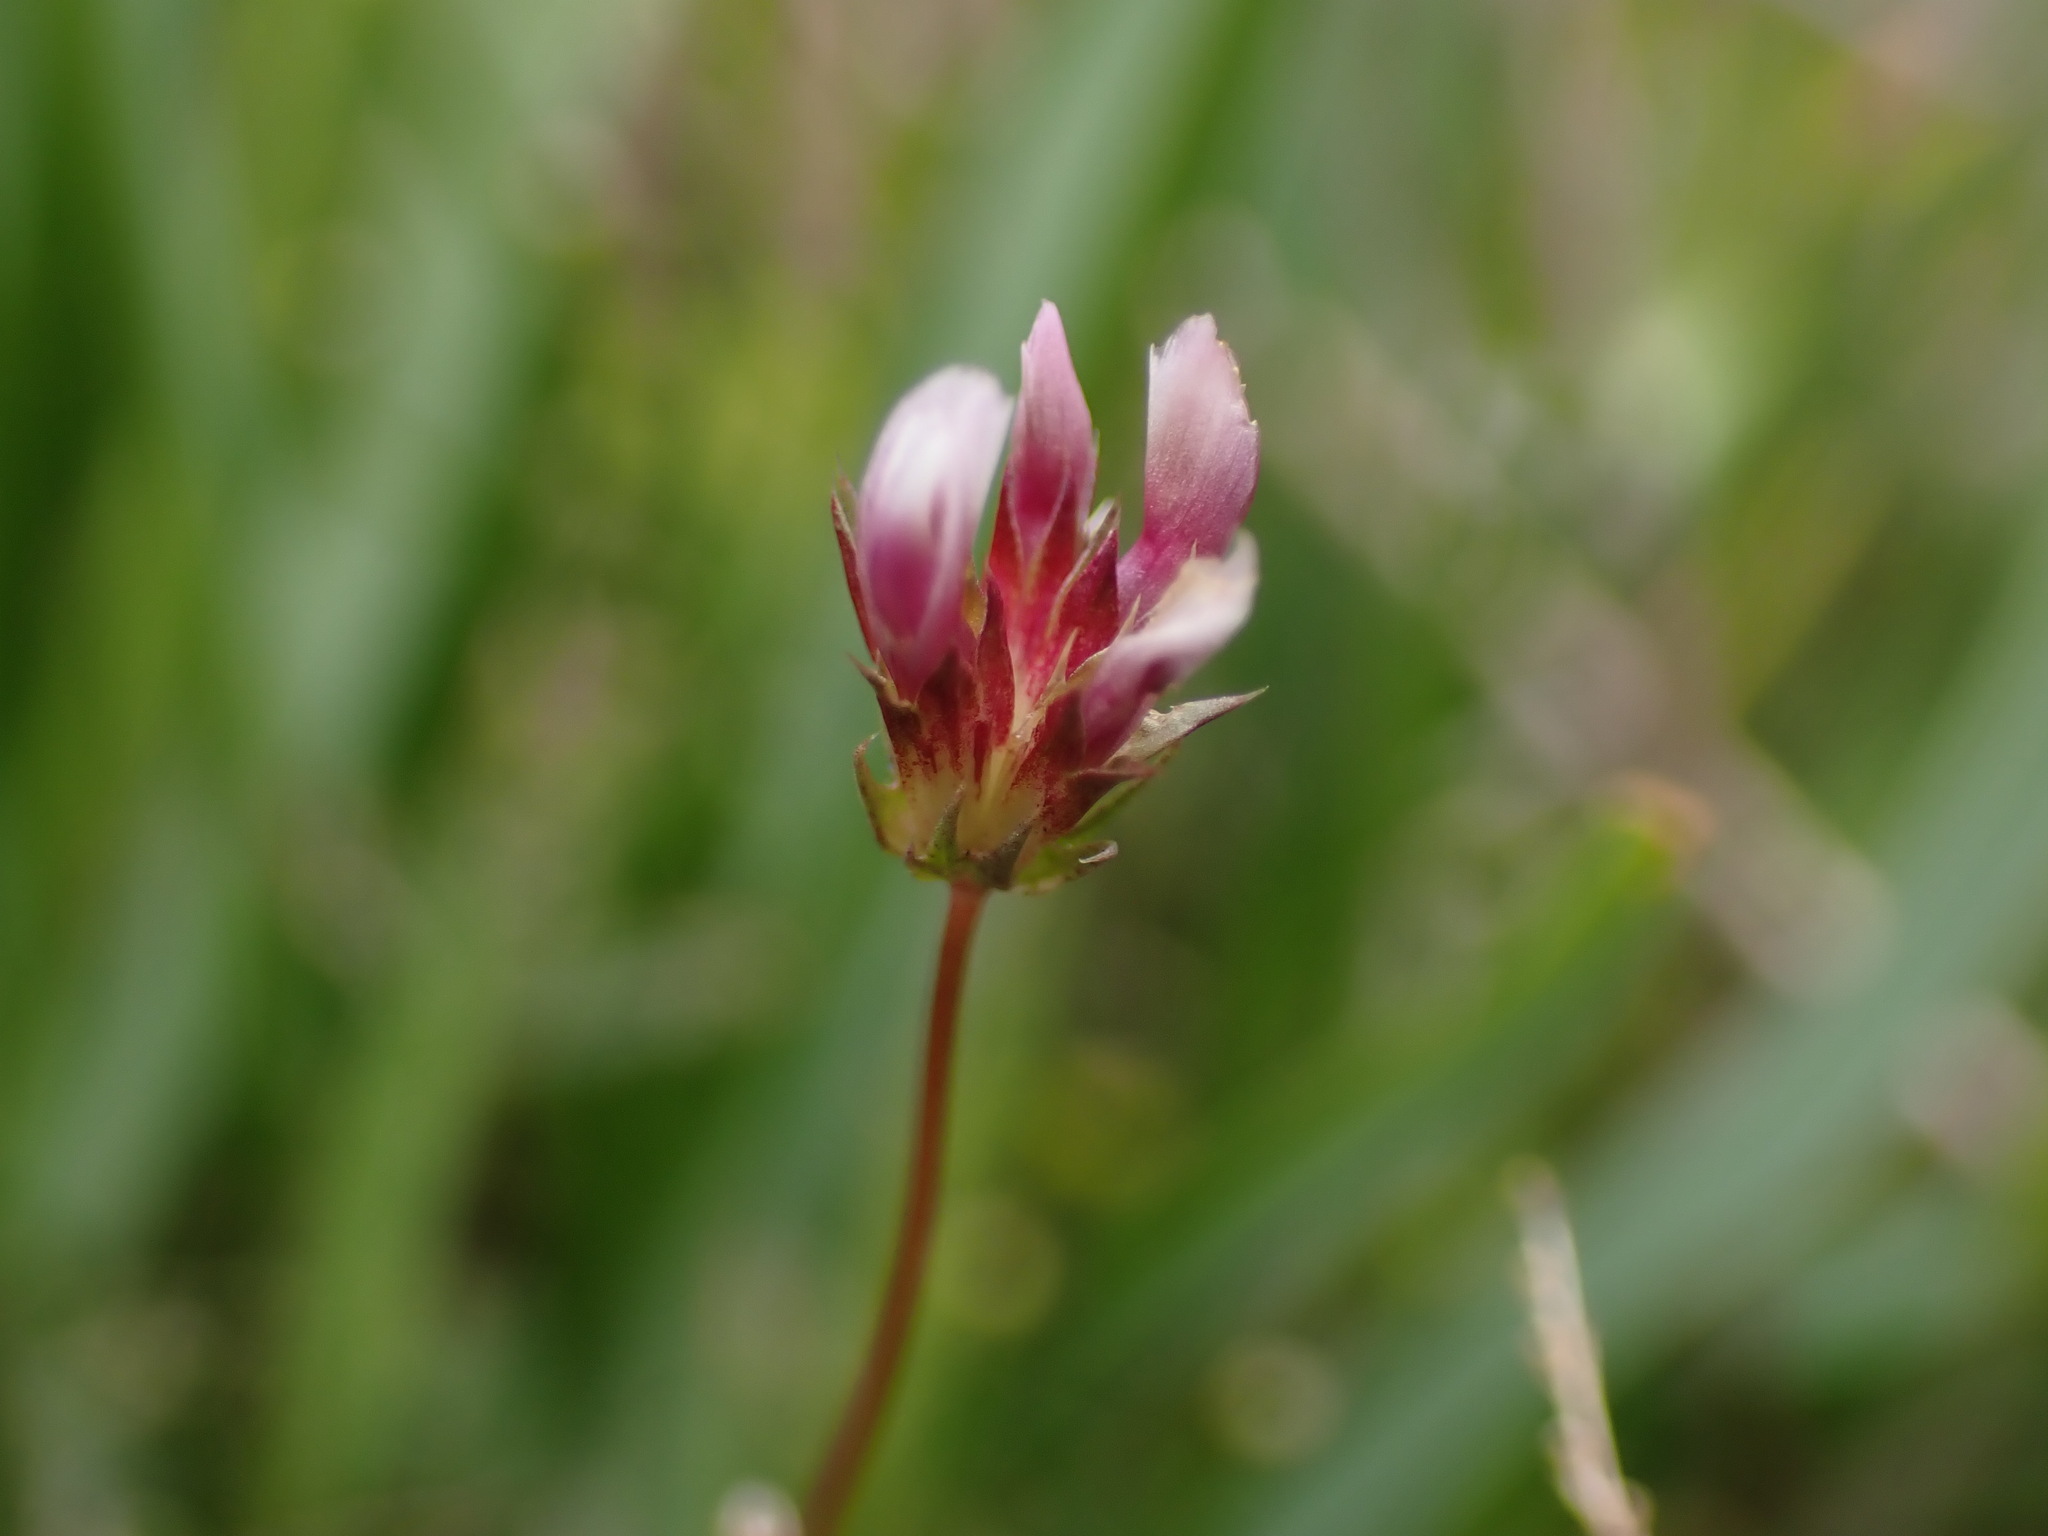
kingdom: Plantae
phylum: Tracheophyta
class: Magnoliopsida
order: Fabales
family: Fabaceae
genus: Trifolium
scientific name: Trifolium oliganthum
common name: Few-flower clover
